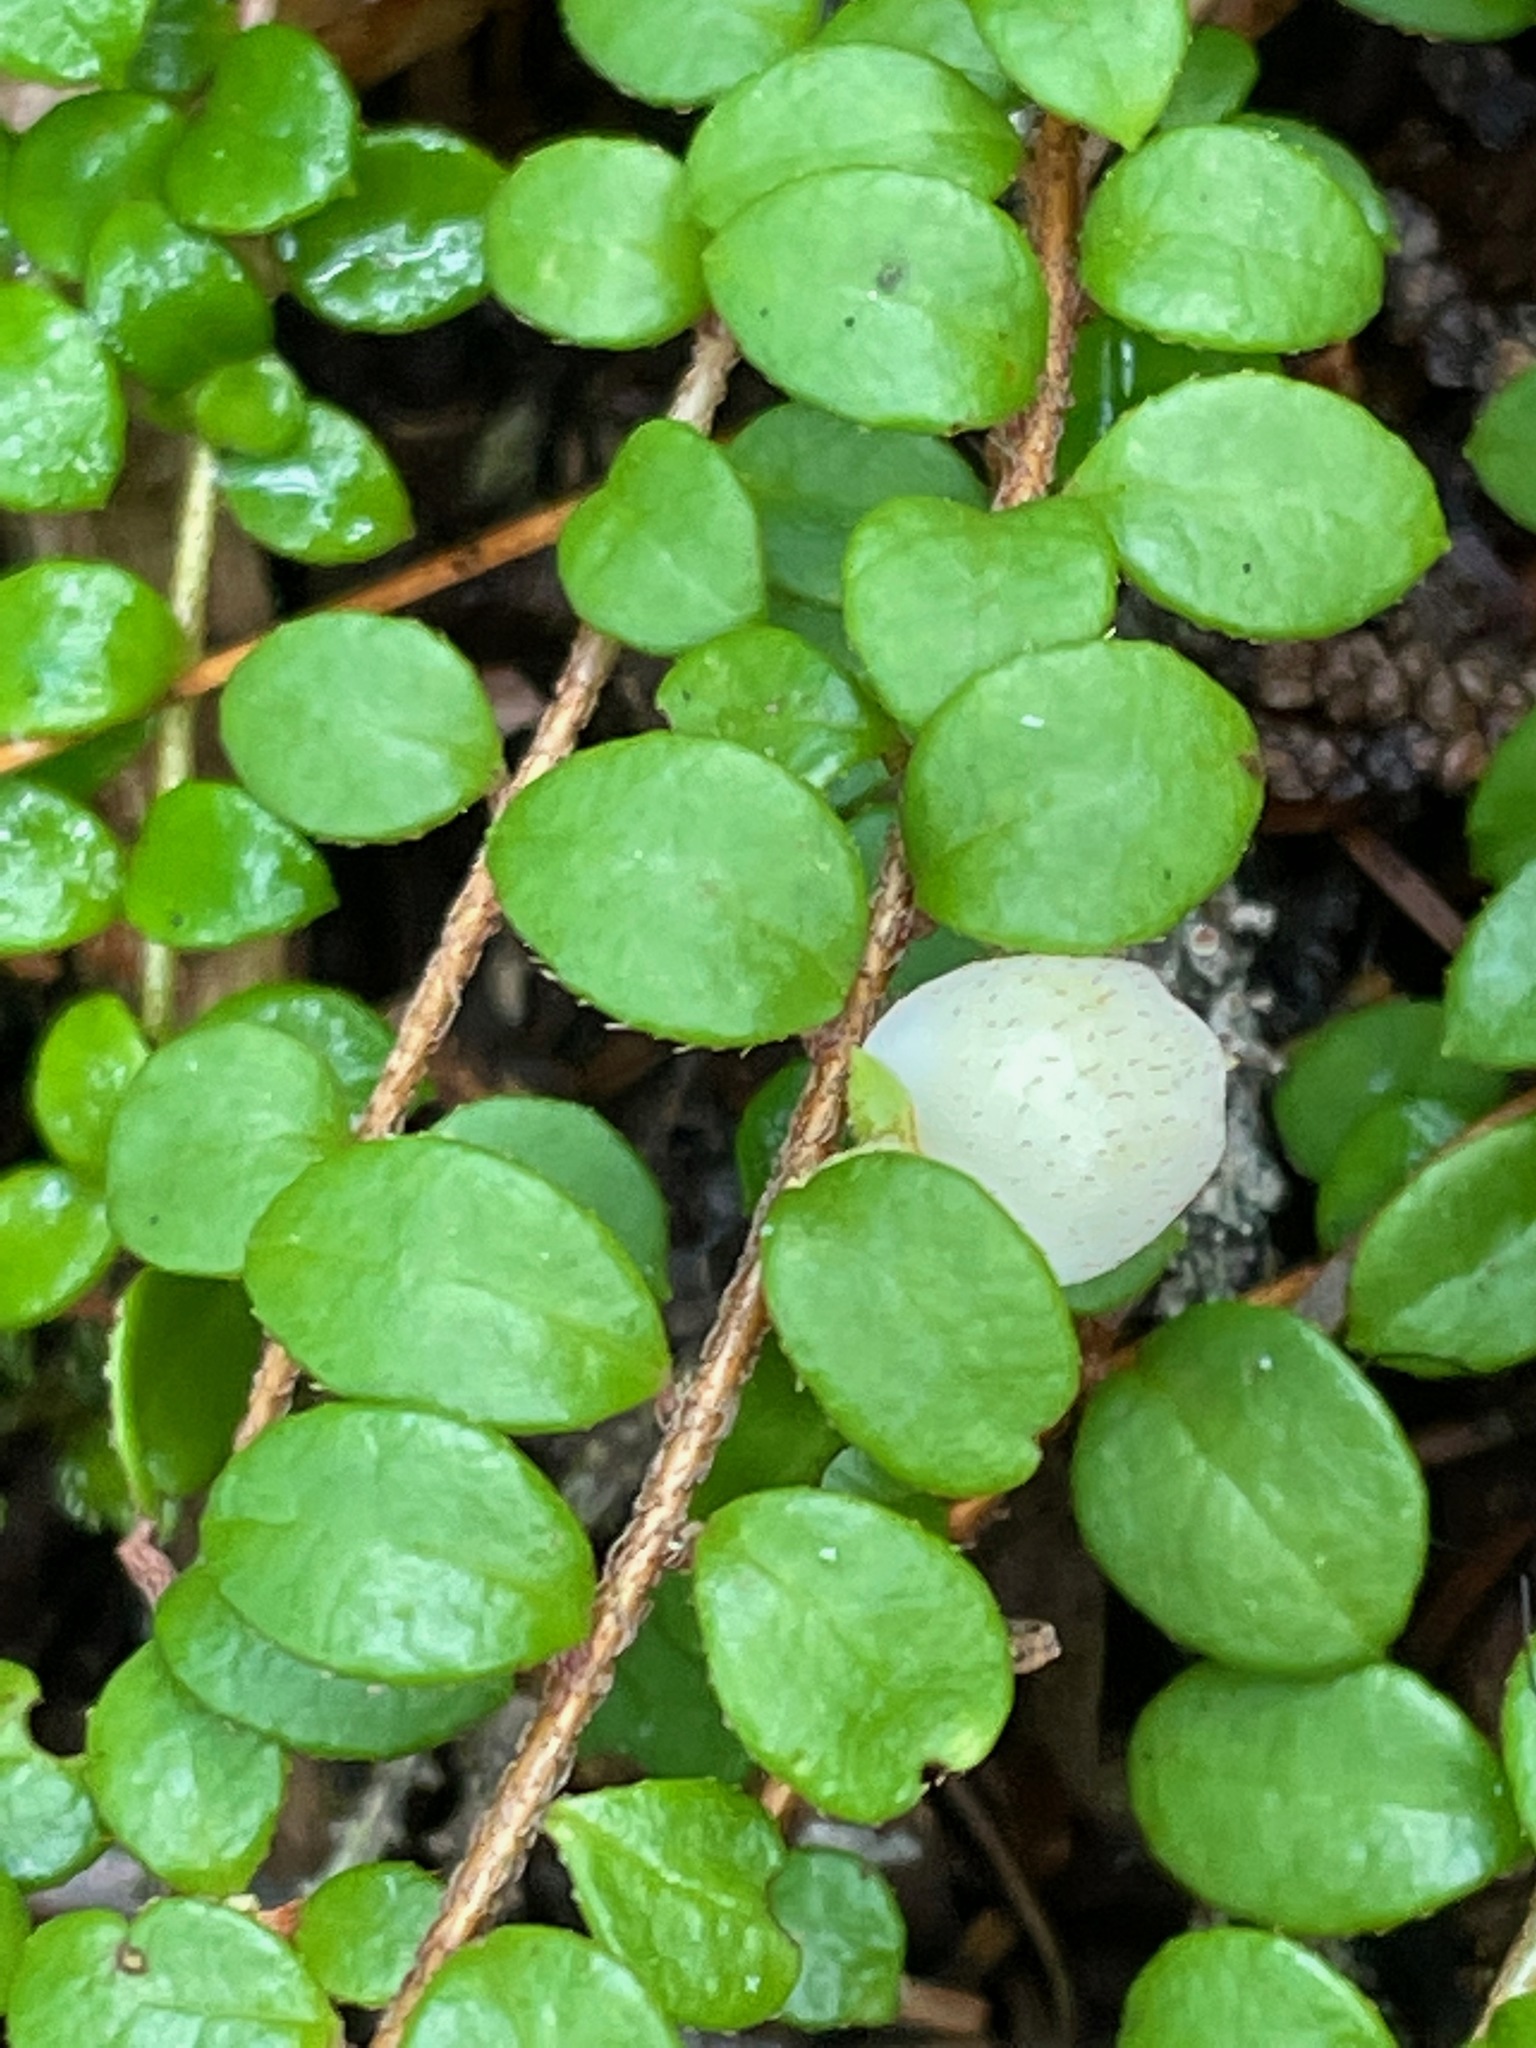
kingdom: Plantae
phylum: Tracheophyta
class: Magnoliopsida
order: Ericales
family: Ericaceae
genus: Gaultheria
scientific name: Gaultheria hispidula
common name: Cancer wintergreen
